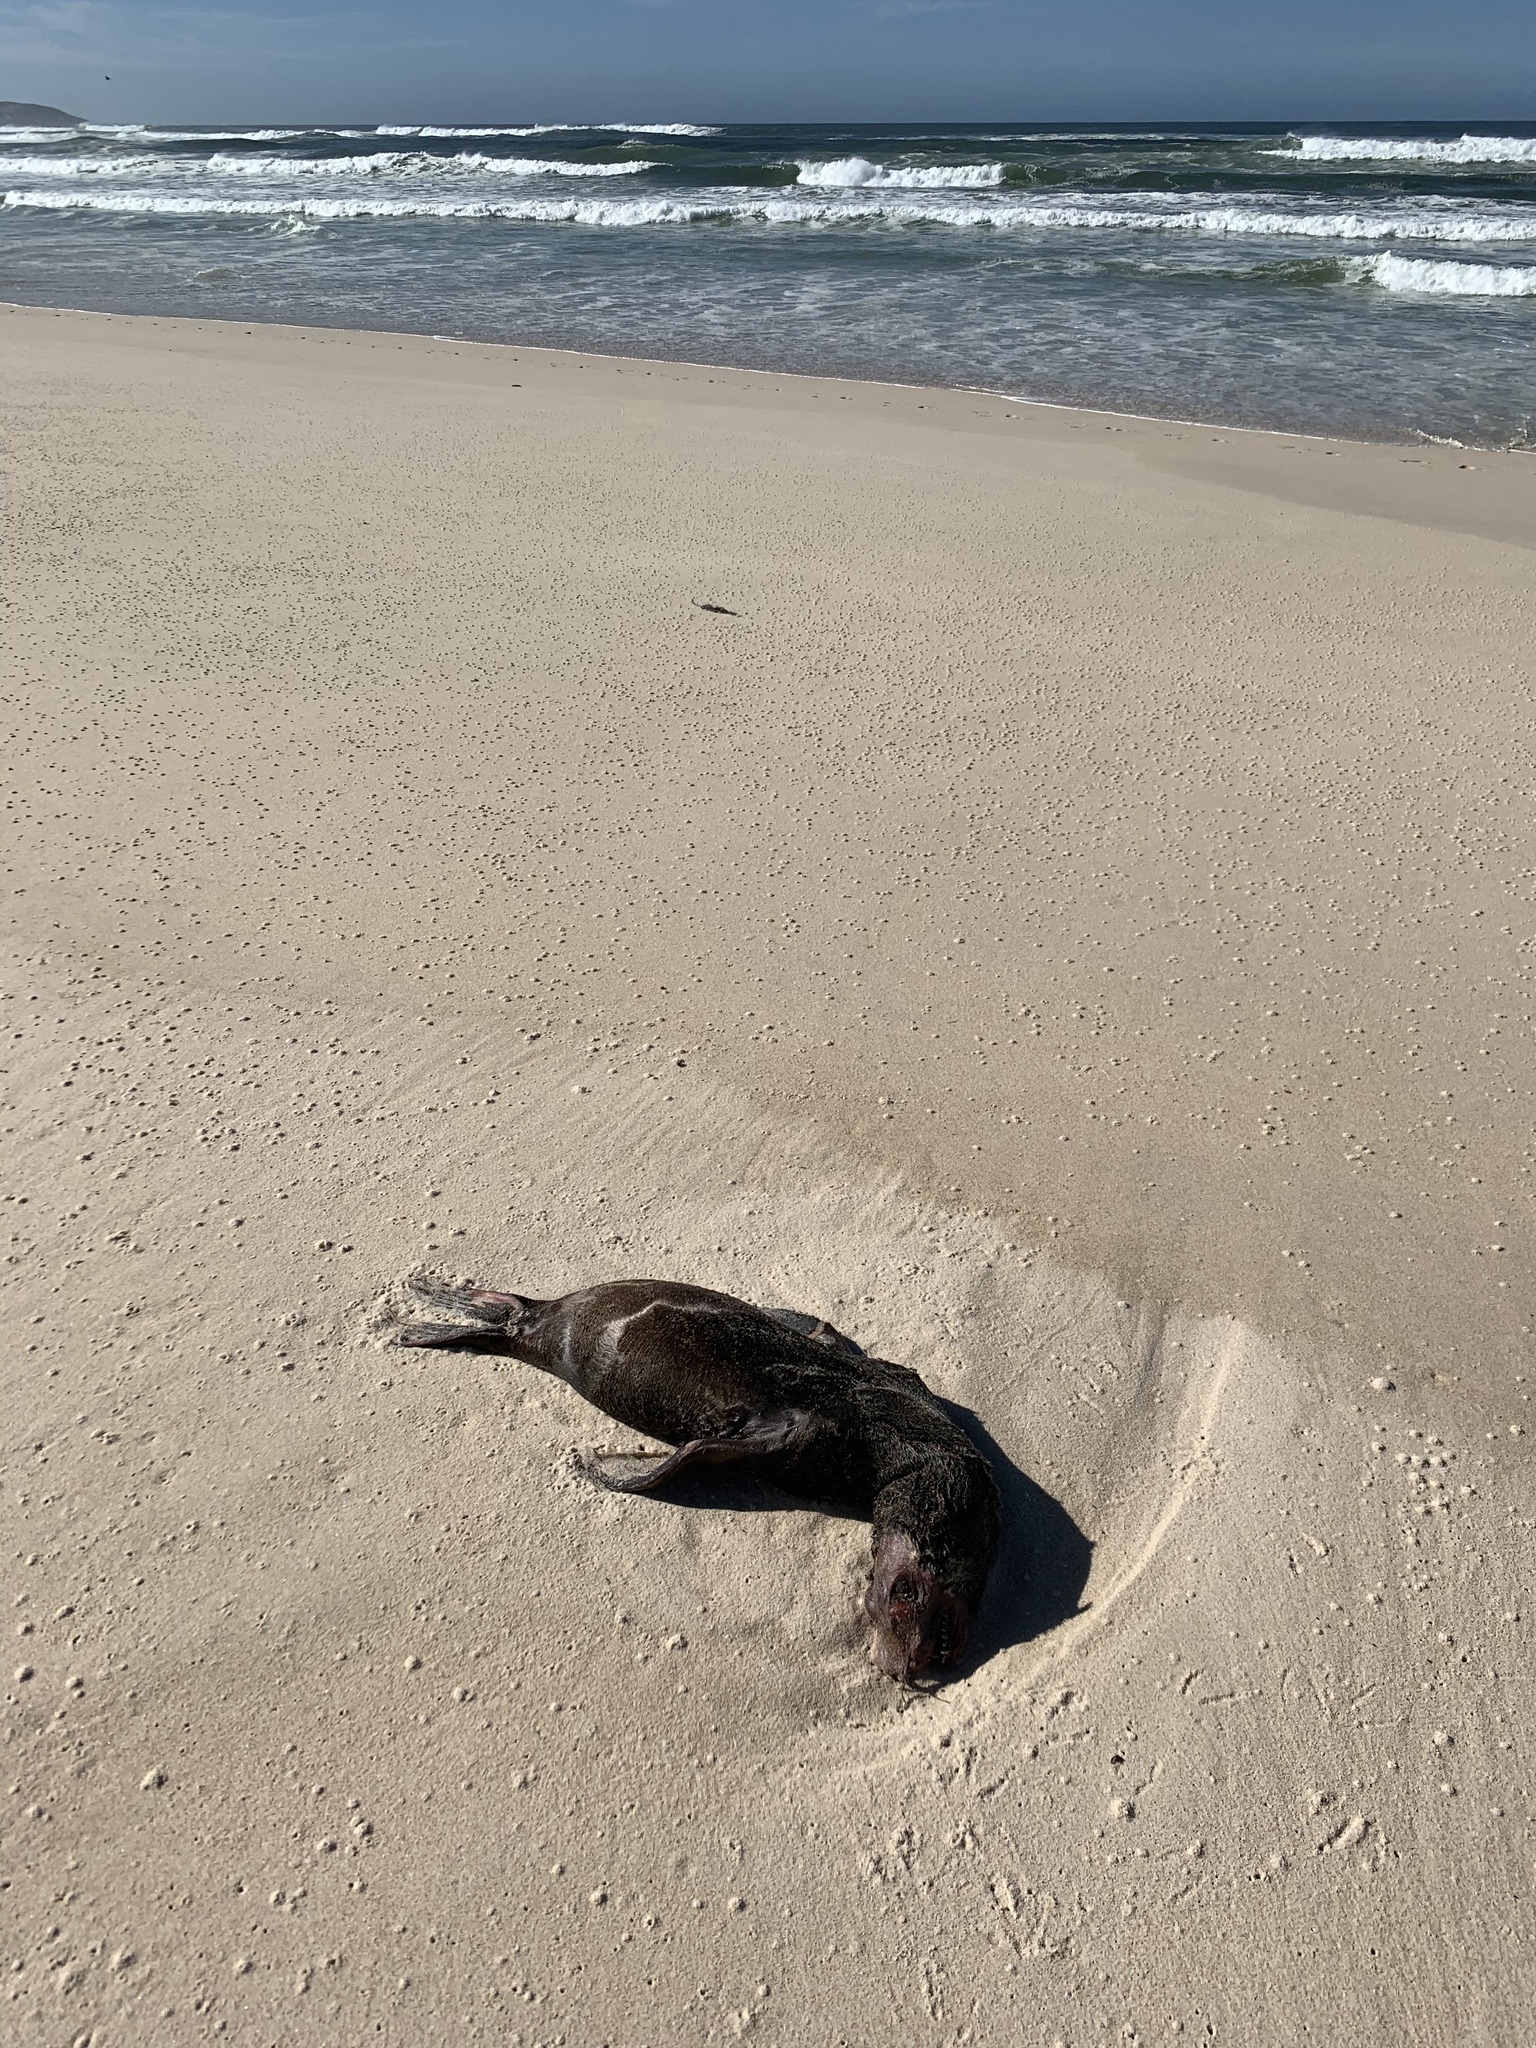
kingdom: Animalia
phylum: Chordata
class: Mammalia
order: Carnivora
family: Otariidae
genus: Arctocephalus
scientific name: Arctocephalus pusillus
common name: Brown fur seal
